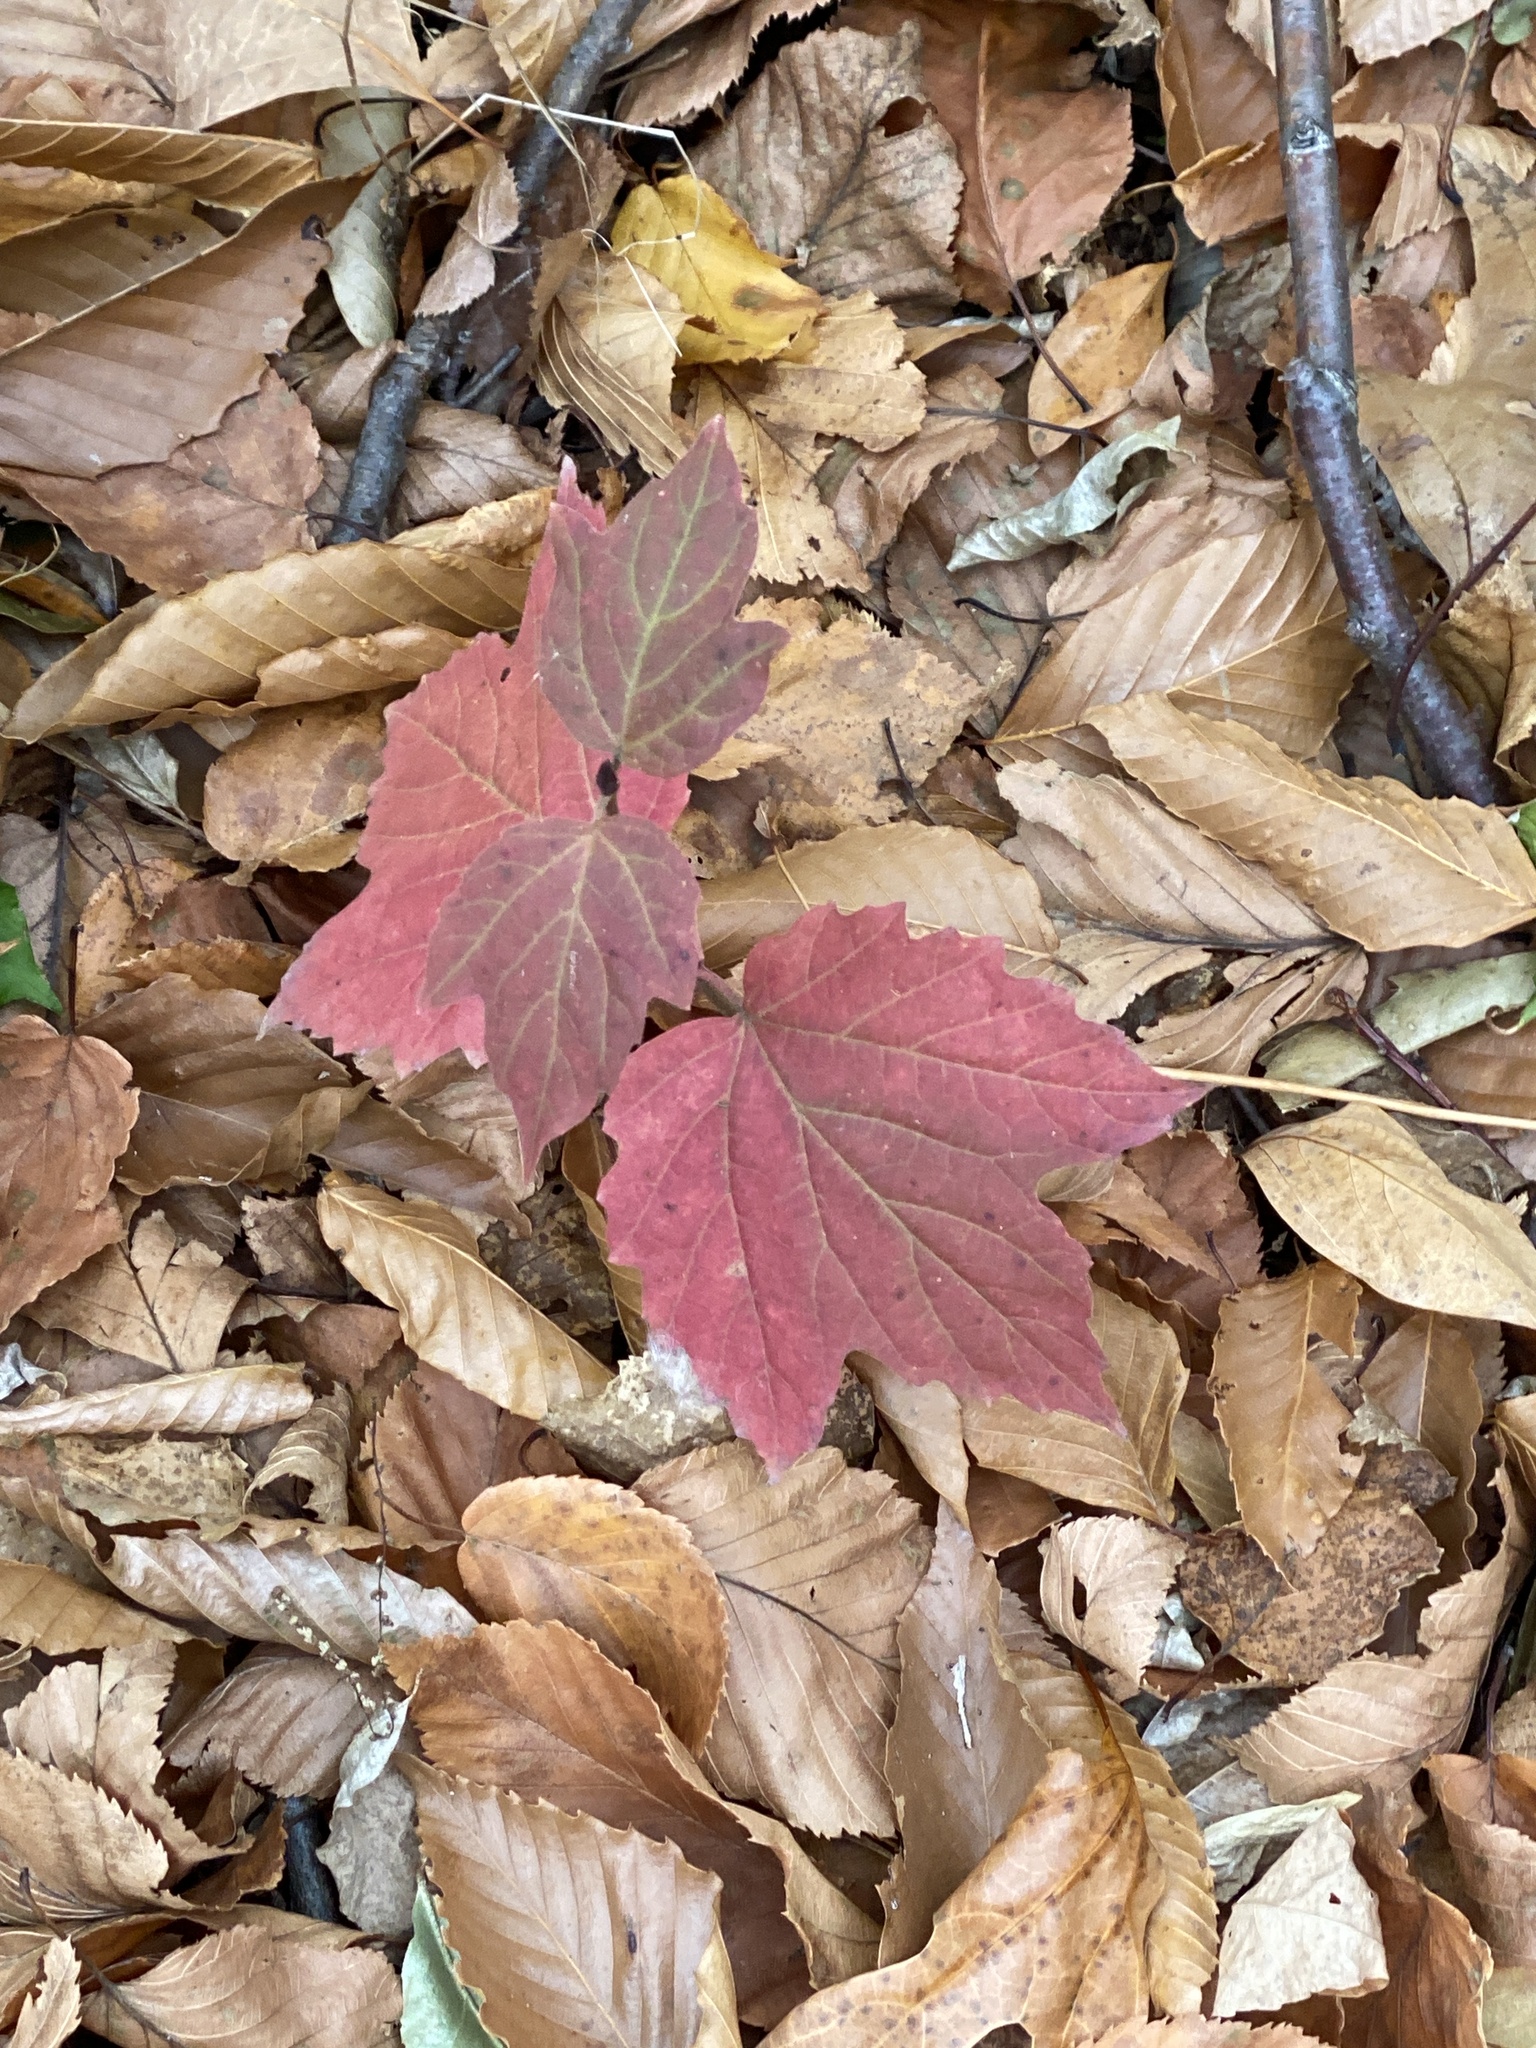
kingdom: Plantae
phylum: Tracheophyta
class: Magnoliopsida
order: Dipsacales
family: Viburnaceae
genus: Viburnum
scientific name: Viburnum acerifolium
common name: Dockmackie
